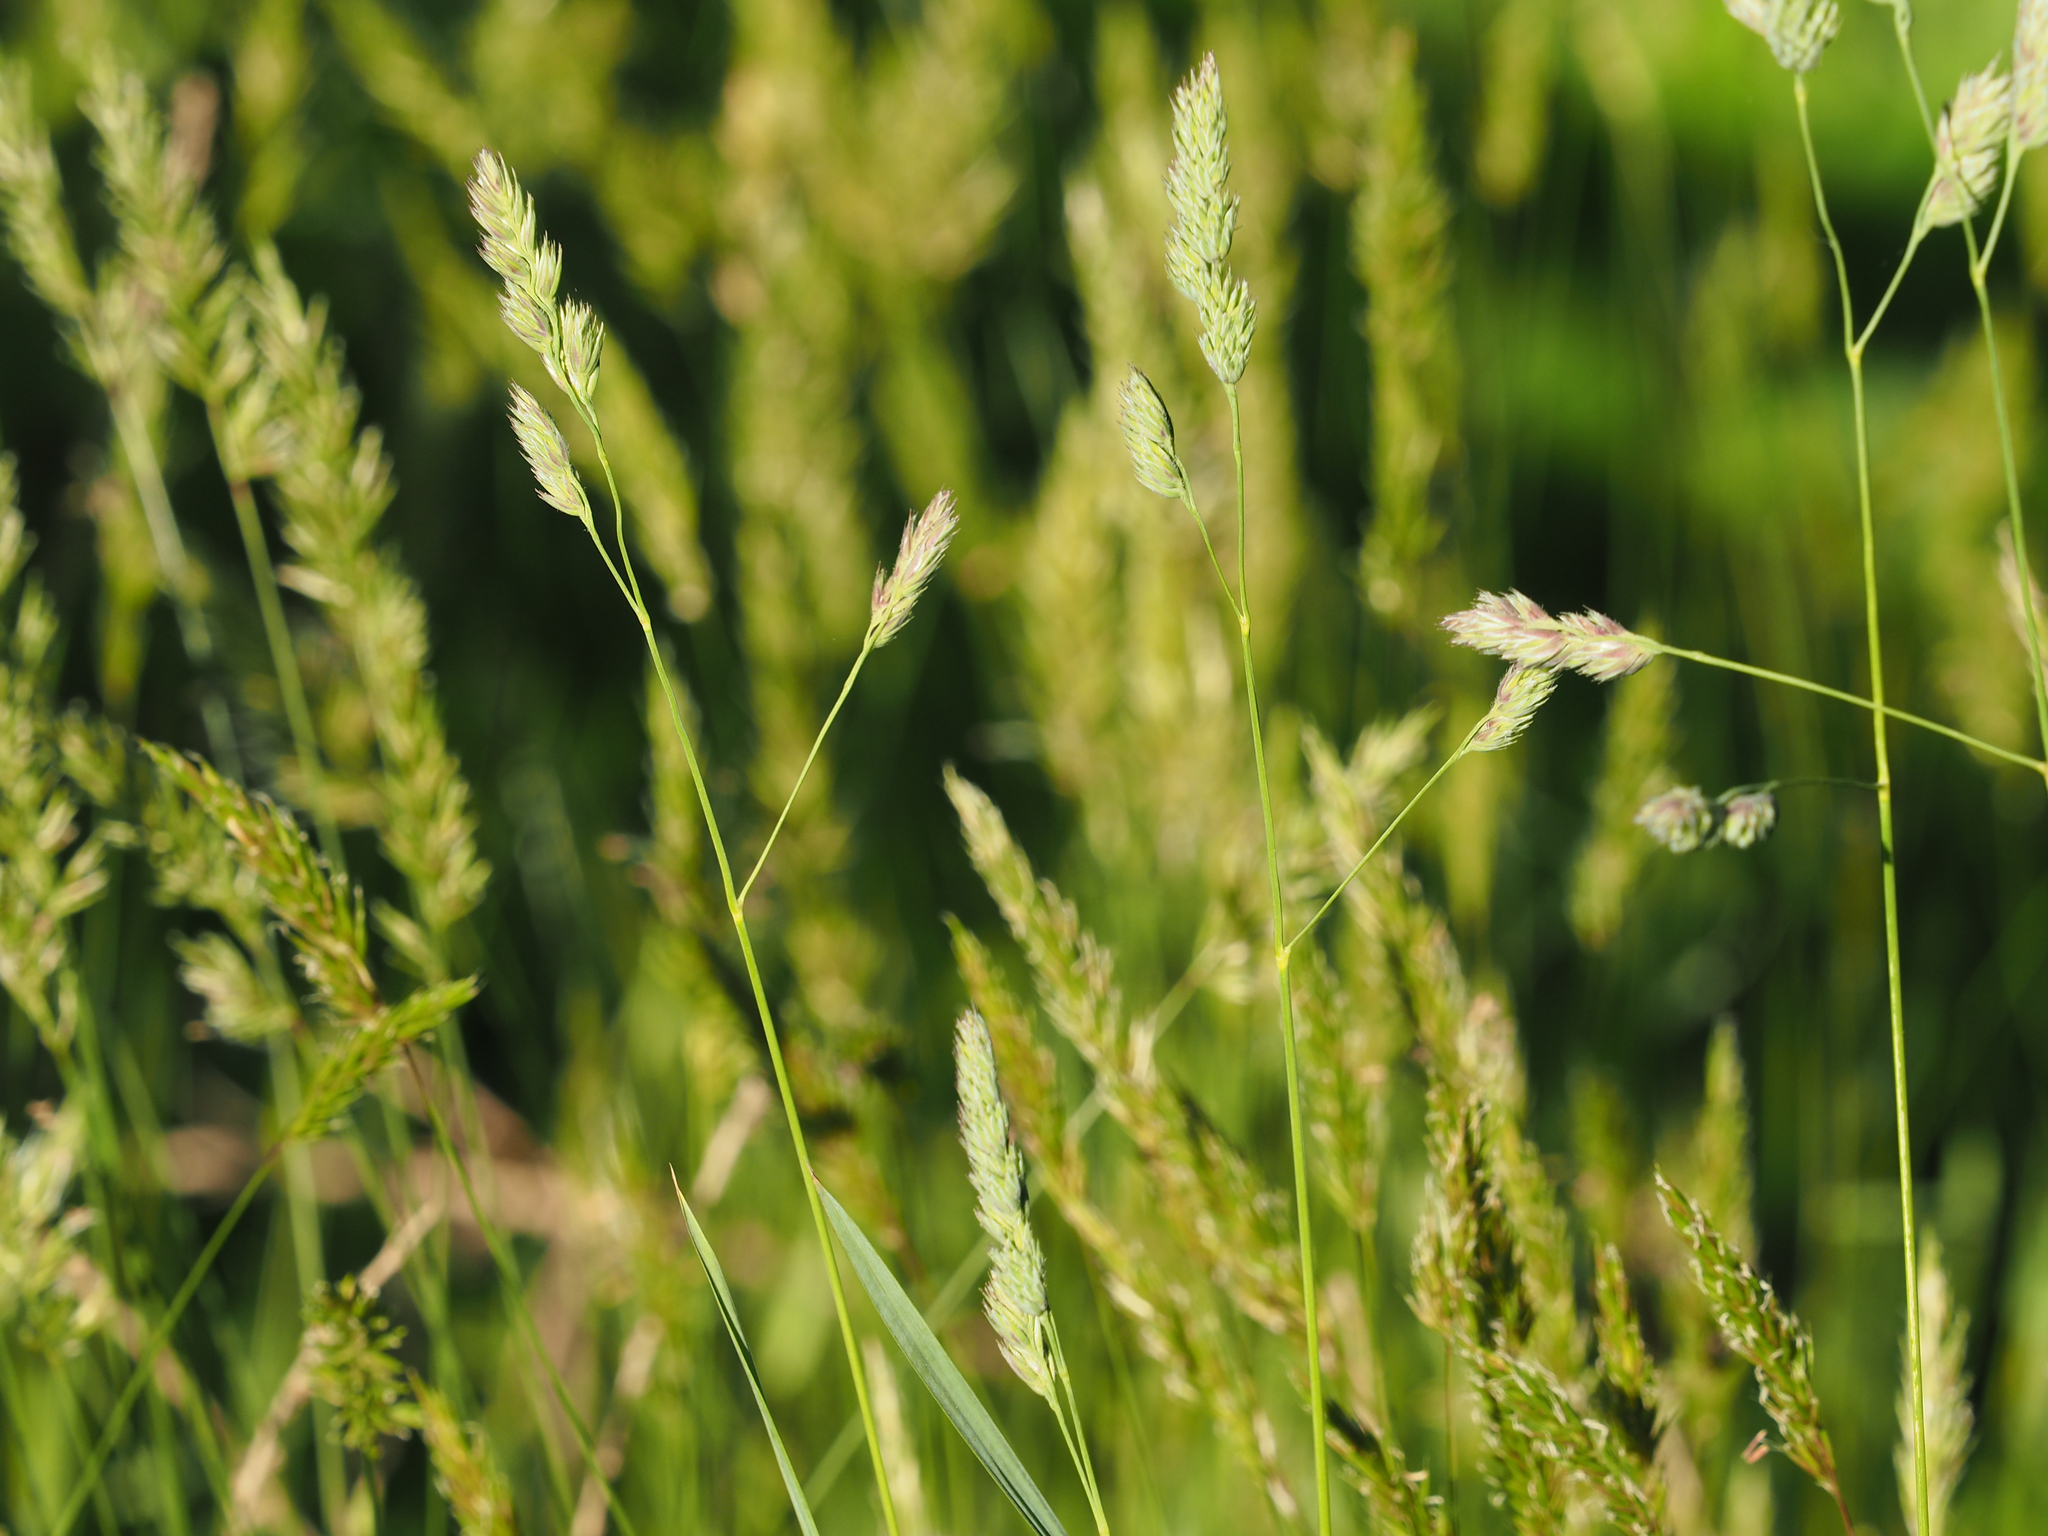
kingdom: Plantae
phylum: Tracheophyta
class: Liliopsida
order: Poales
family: Poaceae
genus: Dactylis
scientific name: Dactylis glomerata
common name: Orchardgrass
